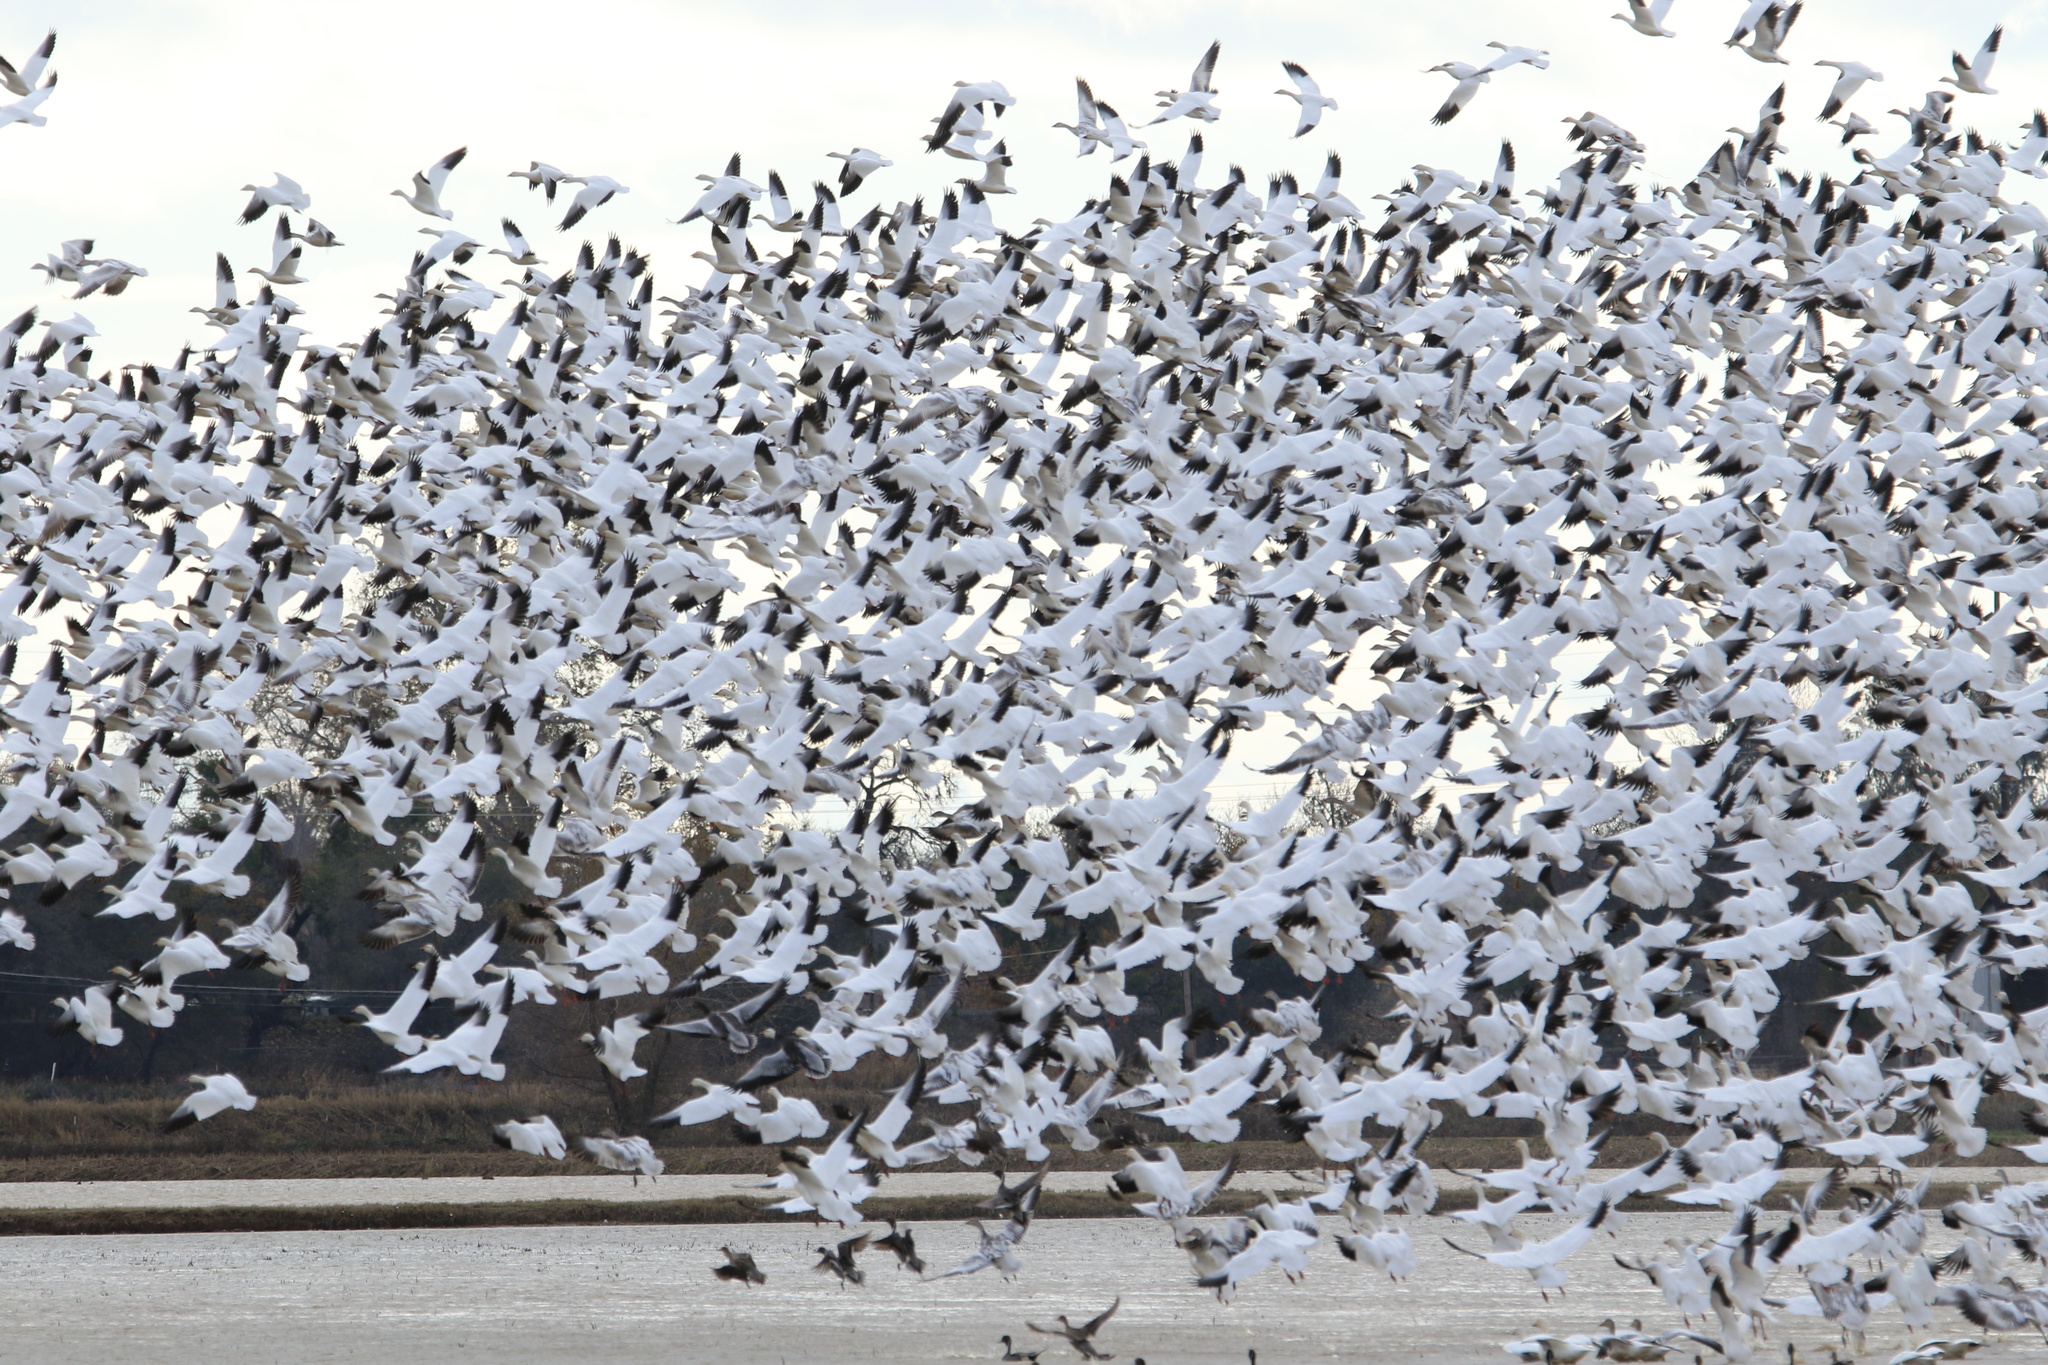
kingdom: Animalia
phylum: Chordata
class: Aves
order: Anseriformes
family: Anatidae
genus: Anser
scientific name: Anser caerulescens
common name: Snow goose
